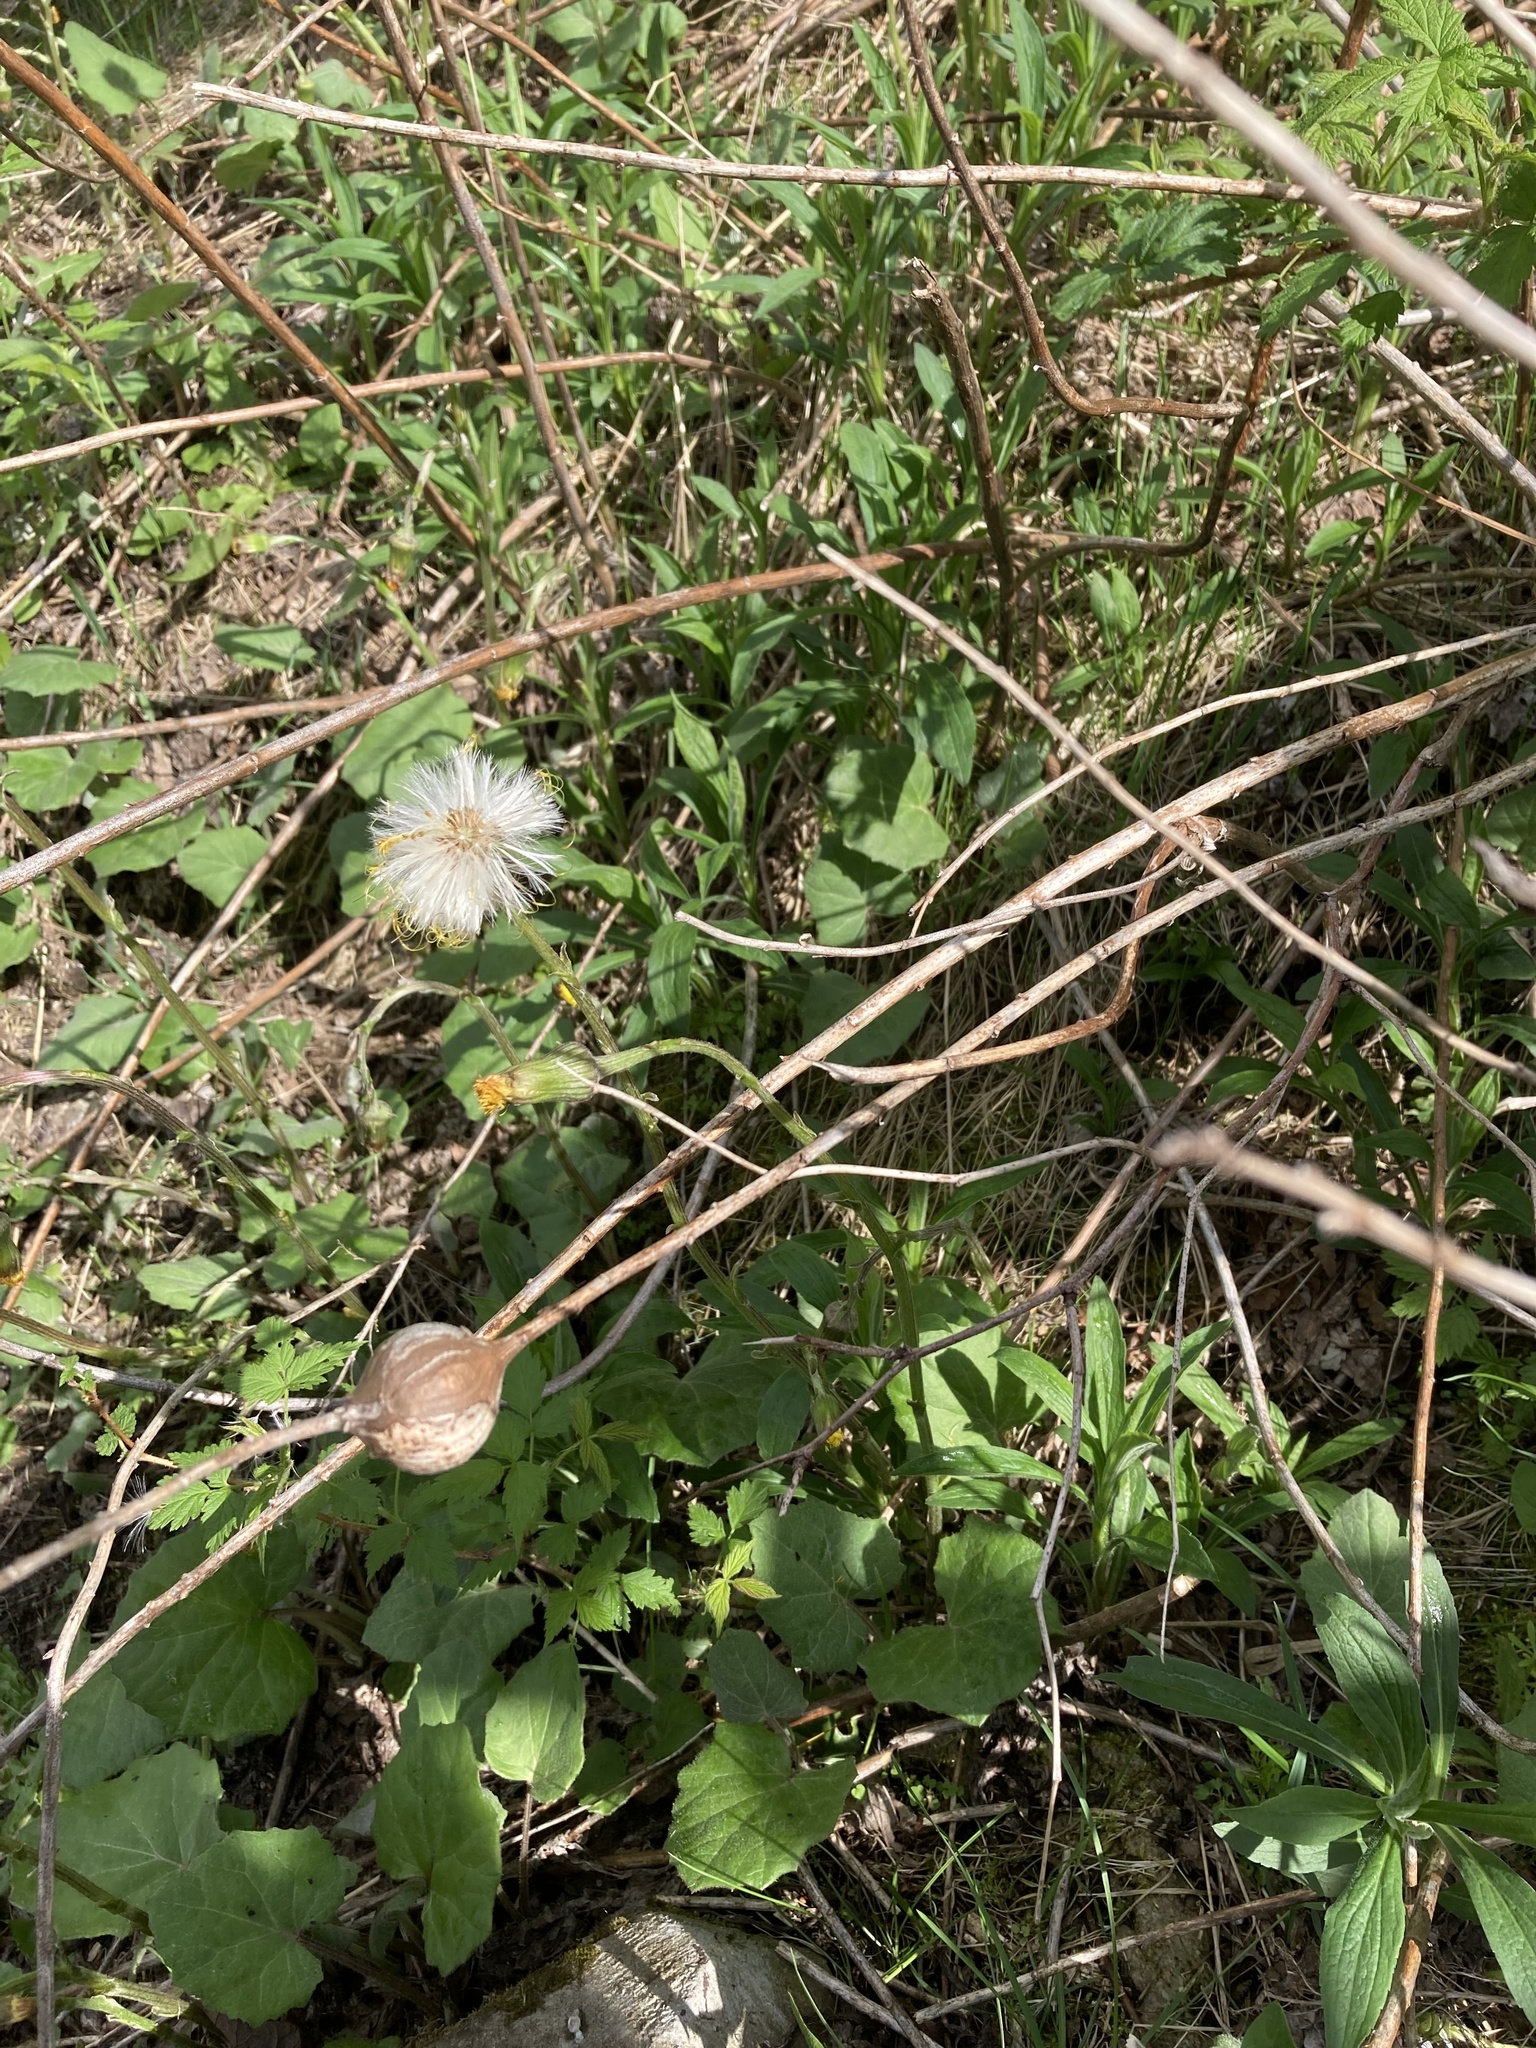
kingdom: Plantae
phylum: Tracheophyta
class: Magnoliopsida
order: Asterales
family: Asteraceae
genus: Tussilago
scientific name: Tussilago farfara
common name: Coltsfoot
